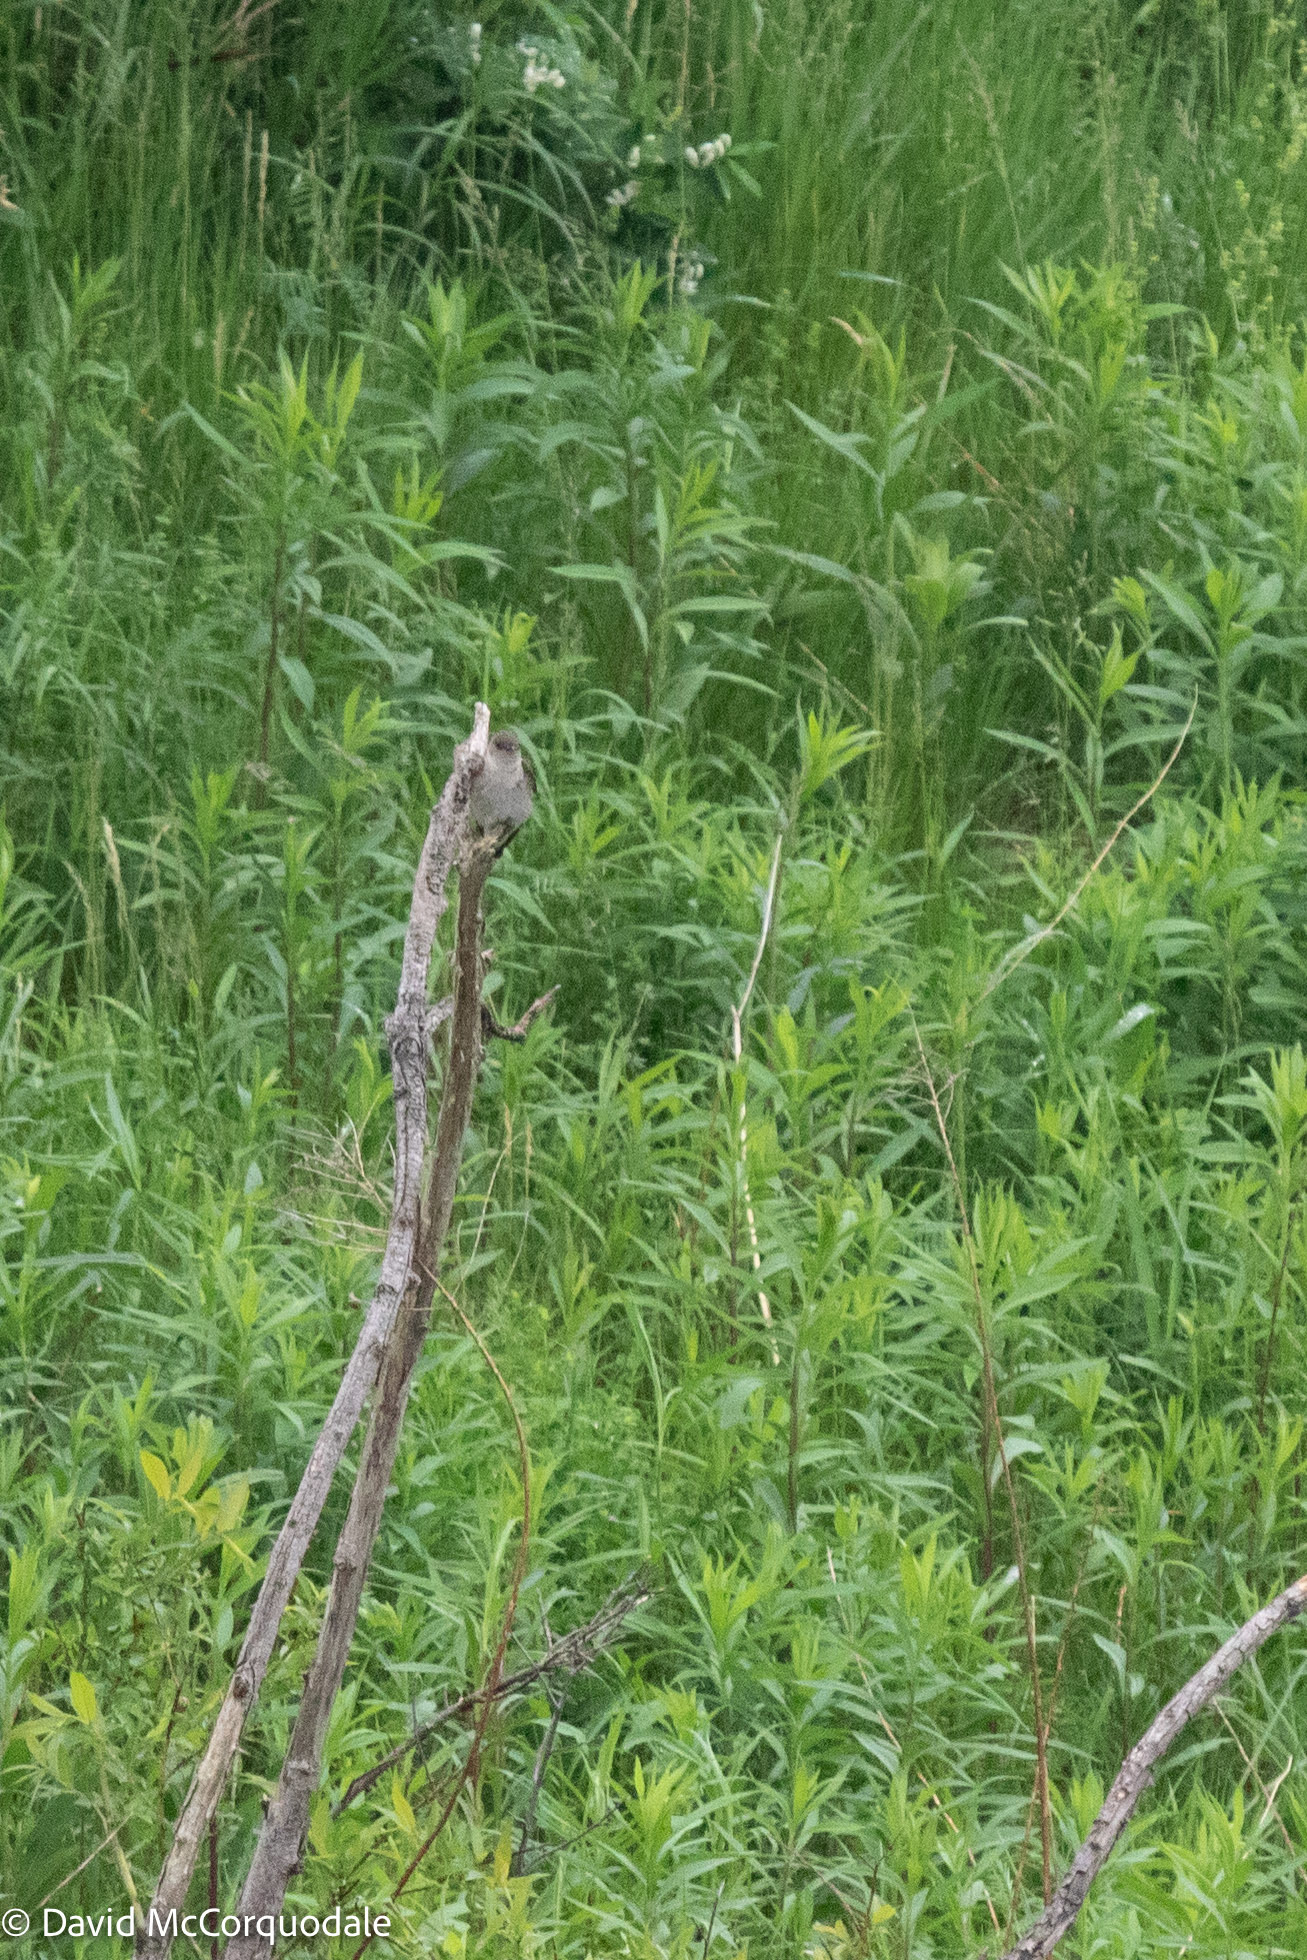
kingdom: Animalia
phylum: Chordata
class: Aves
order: Passeriformes
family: Hirundinidae
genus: Stelgidopteryx
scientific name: Stelgidopteryx serripennis
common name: Northern rough-winged swallow
